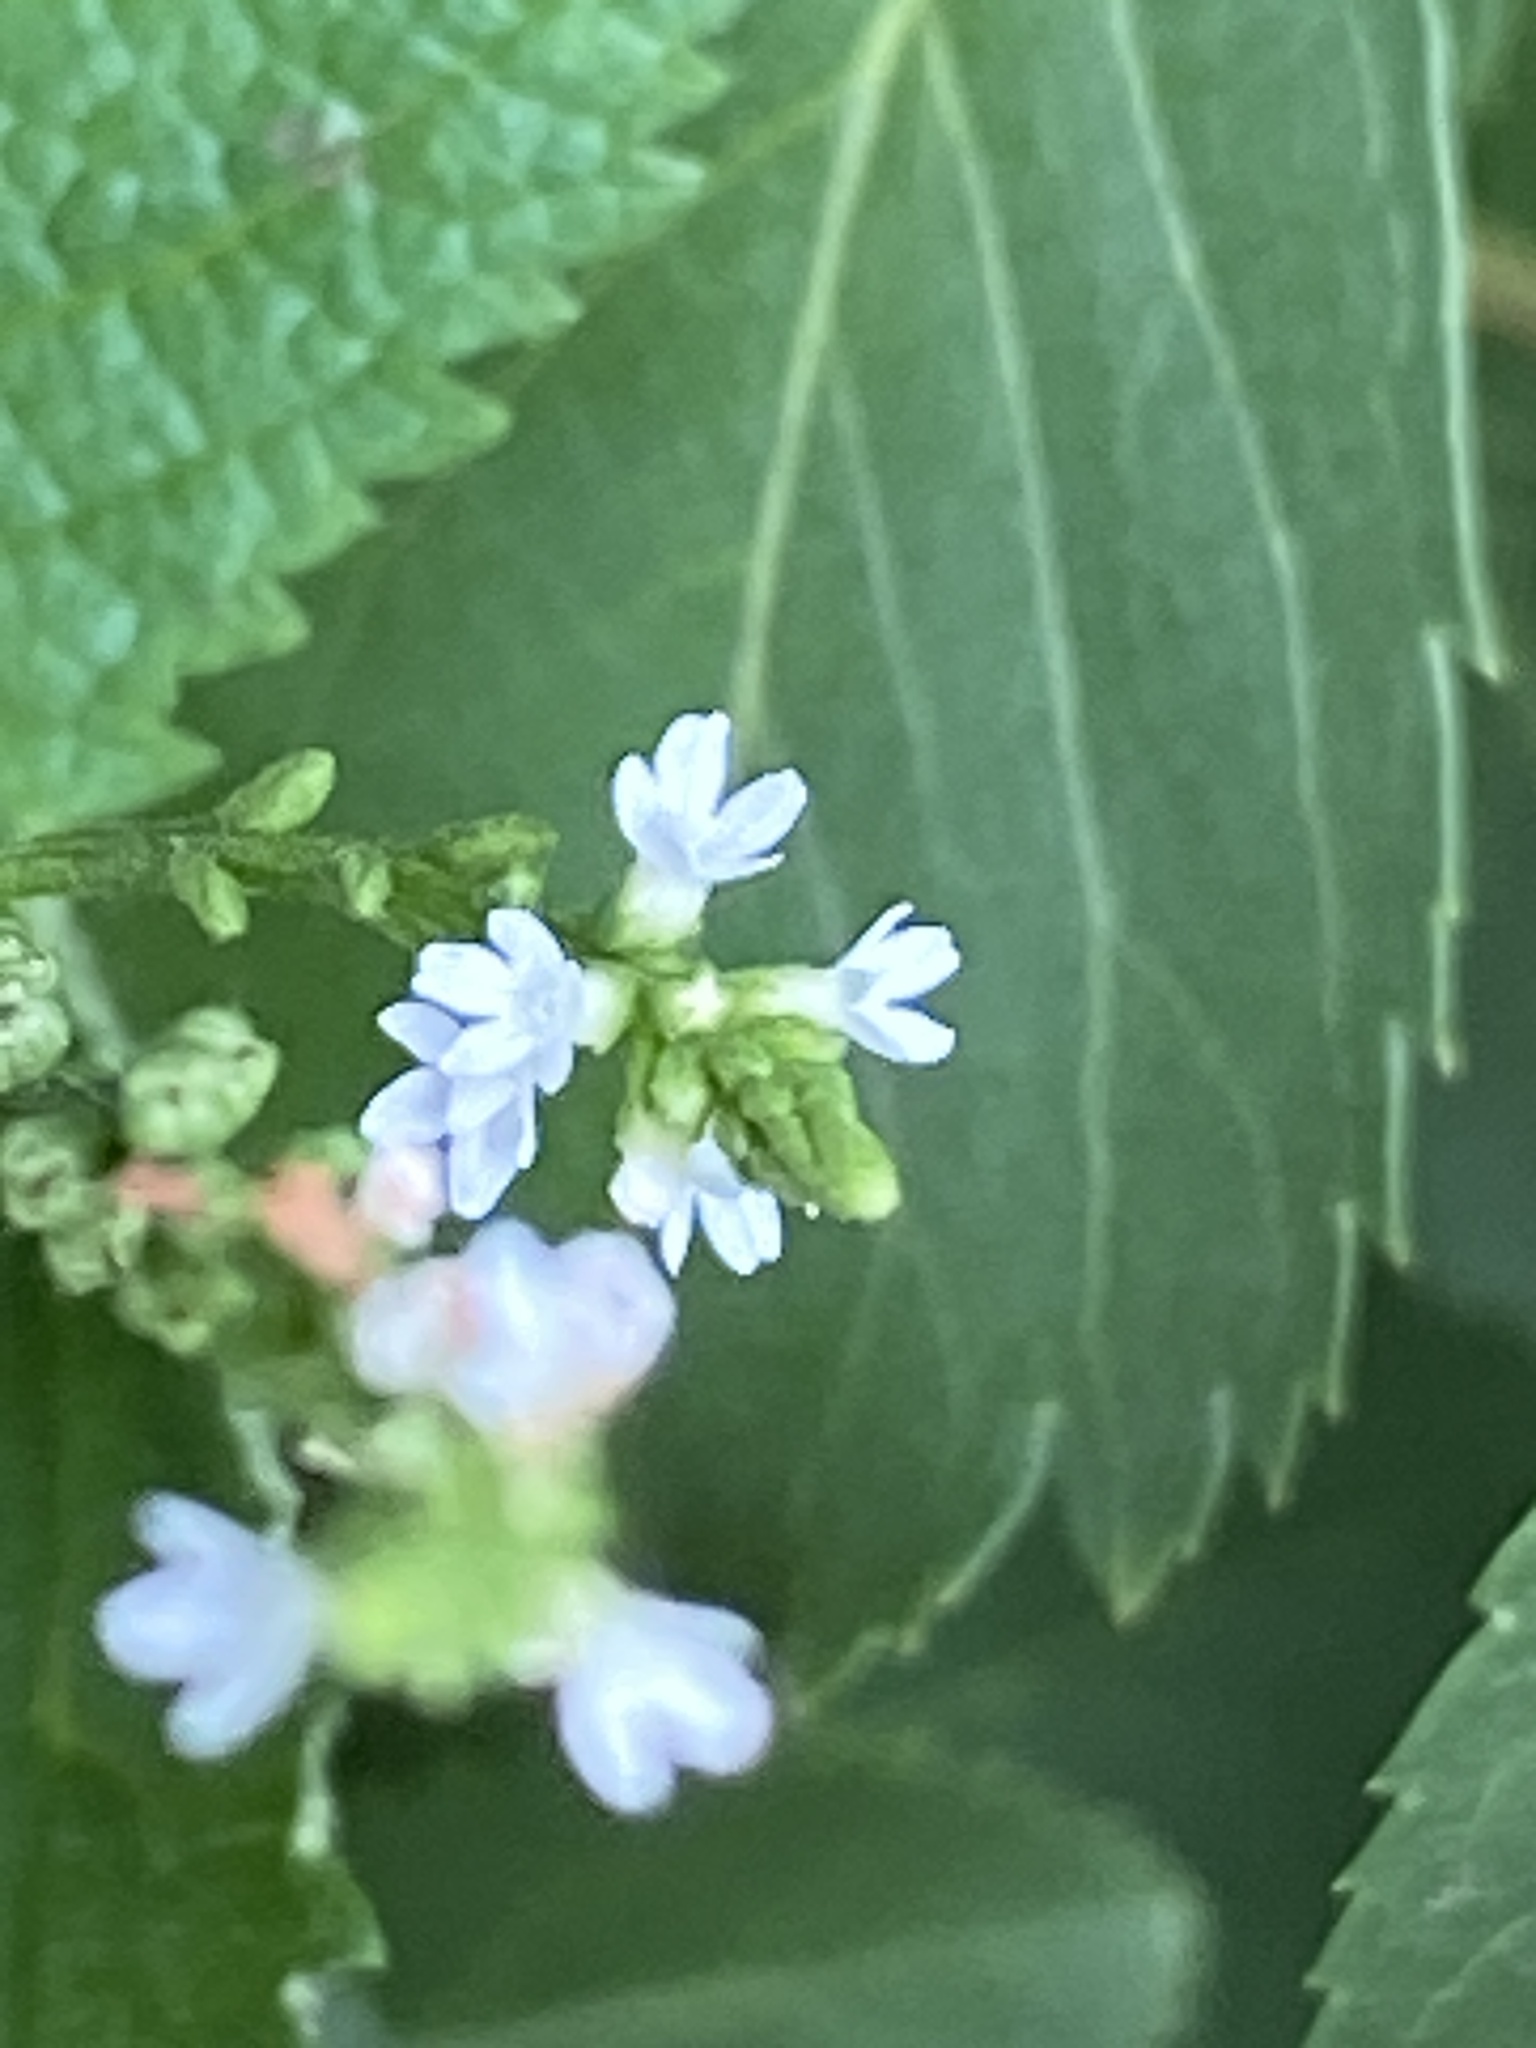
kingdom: Plantae
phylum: Tracheophyta
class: Magnoliopsida
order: Lamiales
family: Verbenaceae
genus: Verbena
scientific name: Verbena urticifolia
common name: Nettle-leaved vervain
